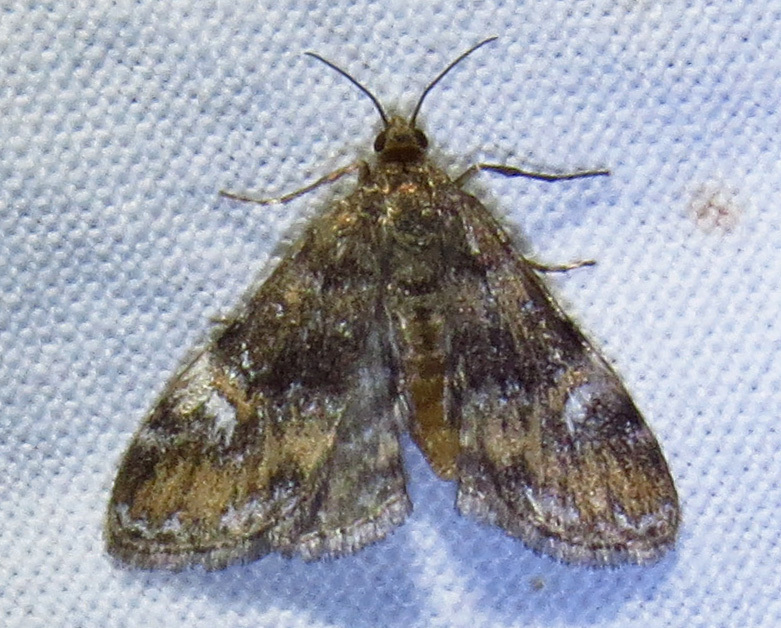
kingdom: Animalia
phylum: Arthropoda
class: Insecta
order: Lepidoptera
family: Crambidae
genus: Elophila
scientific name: Elophila obliteralis
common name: Waterlily leafcutter moth
